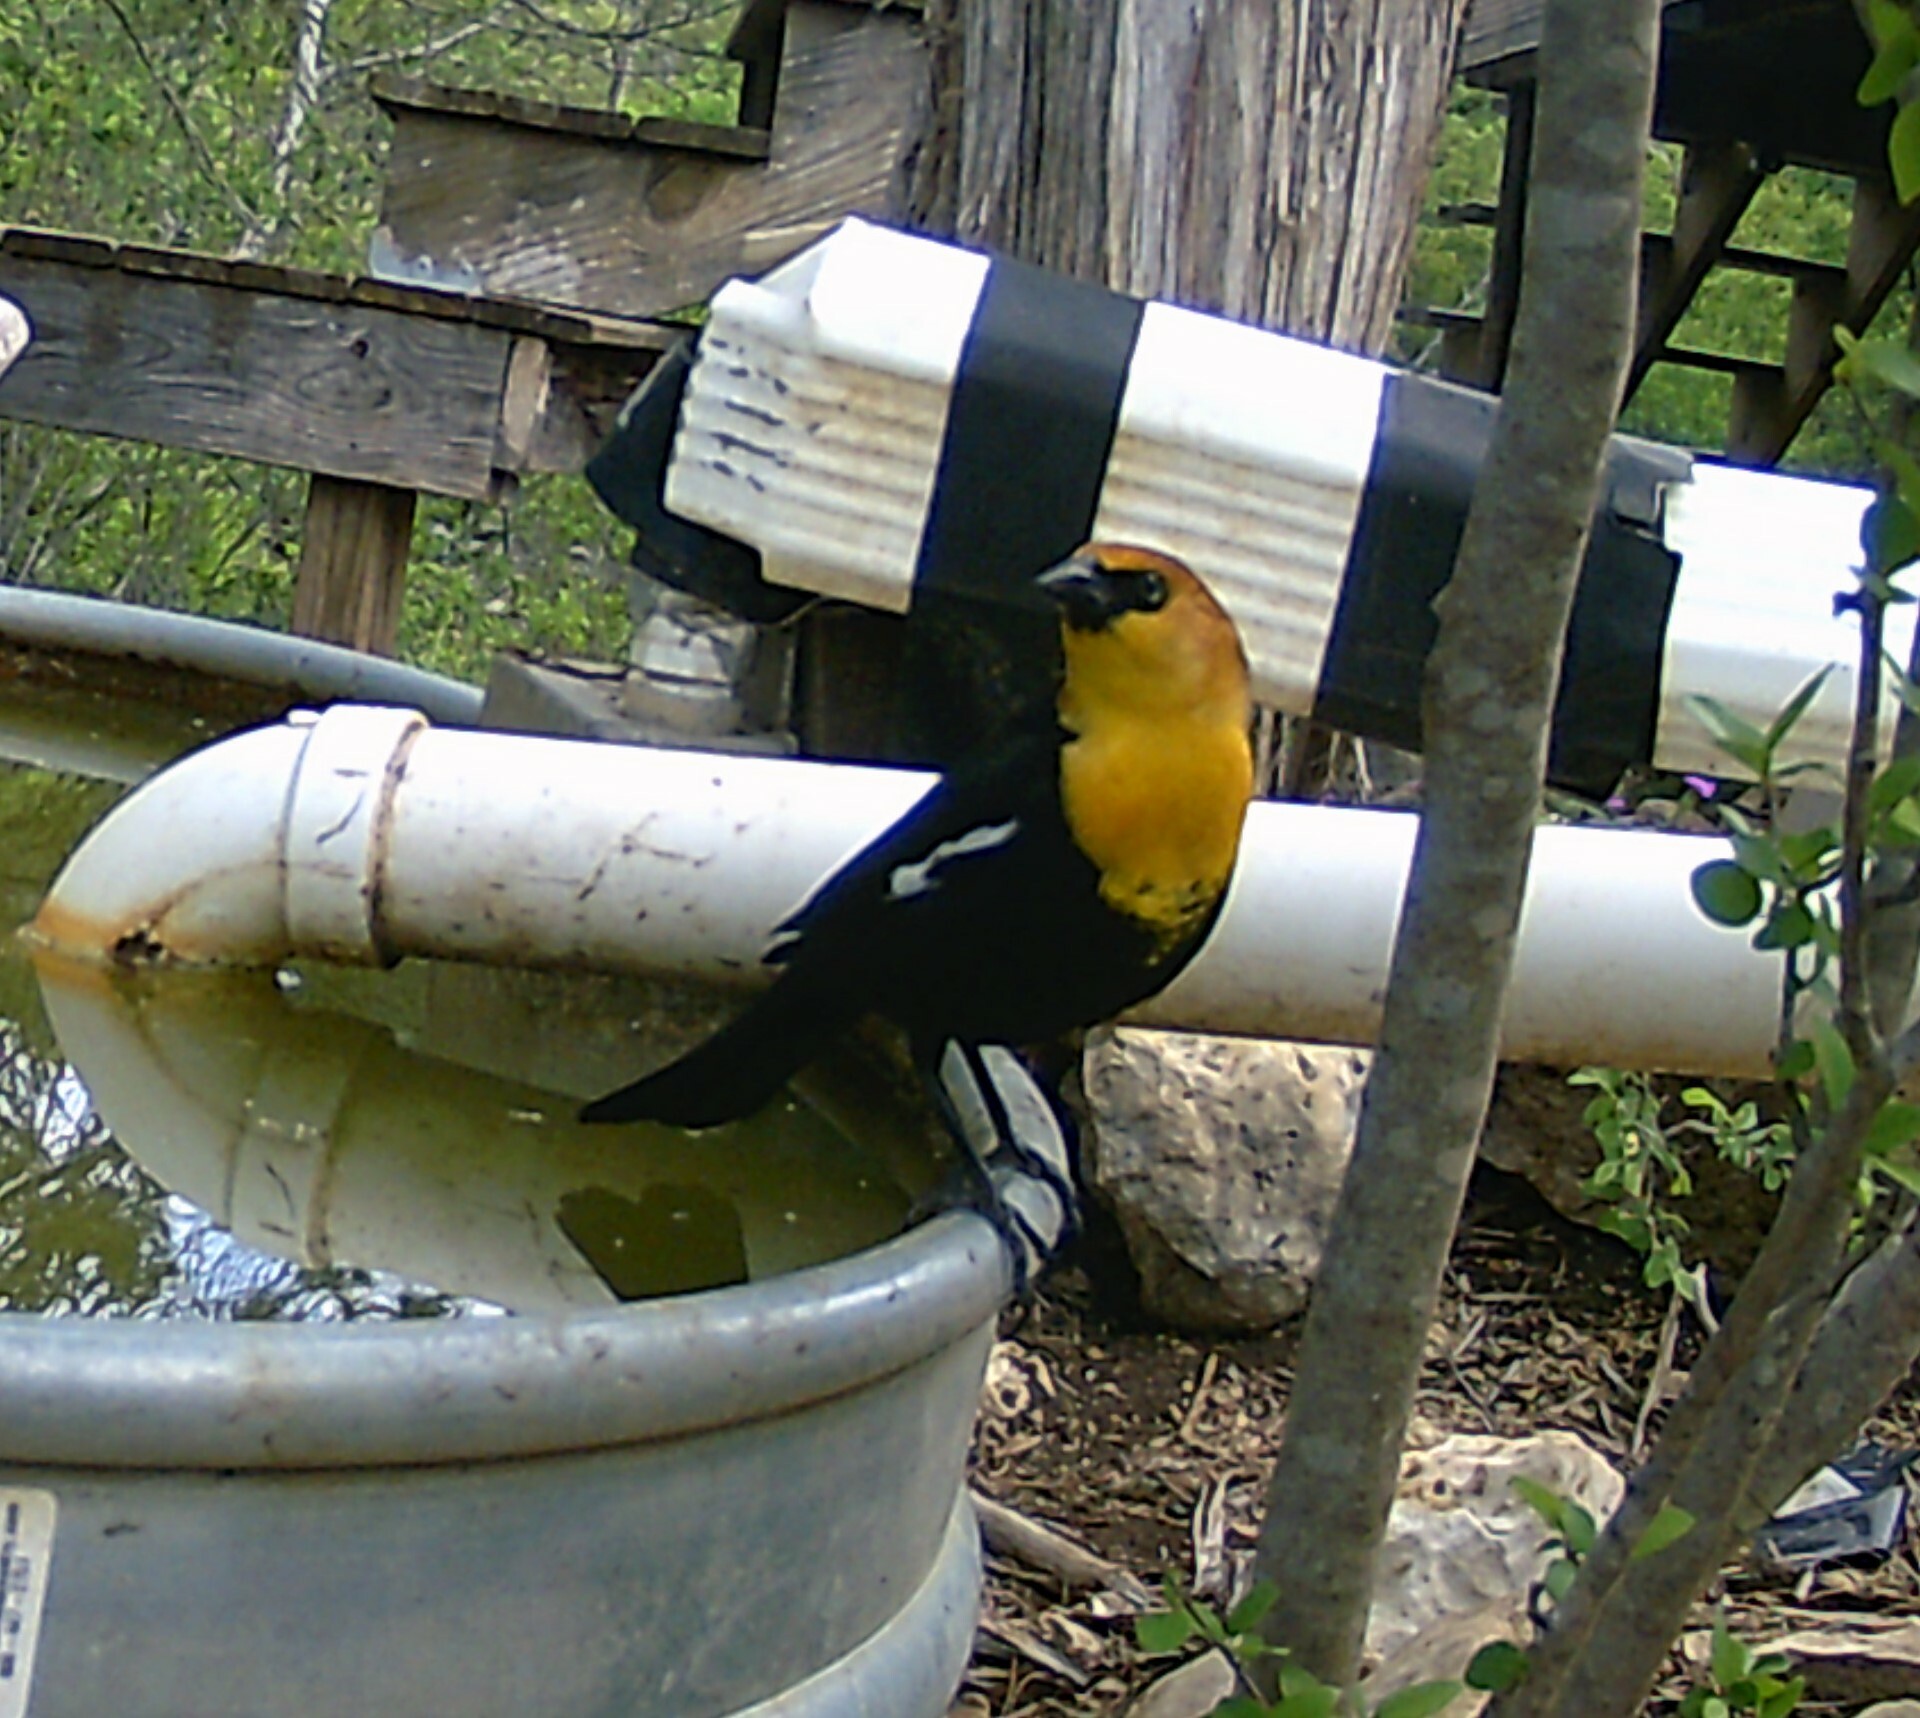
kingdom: Animalia
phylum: Chordata
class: Aves
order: Passeriformes
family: Icteridae
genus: Xanthocephalus
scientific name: Xanthocephalus xanthocephalus
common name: Yellow-headed blackbird
